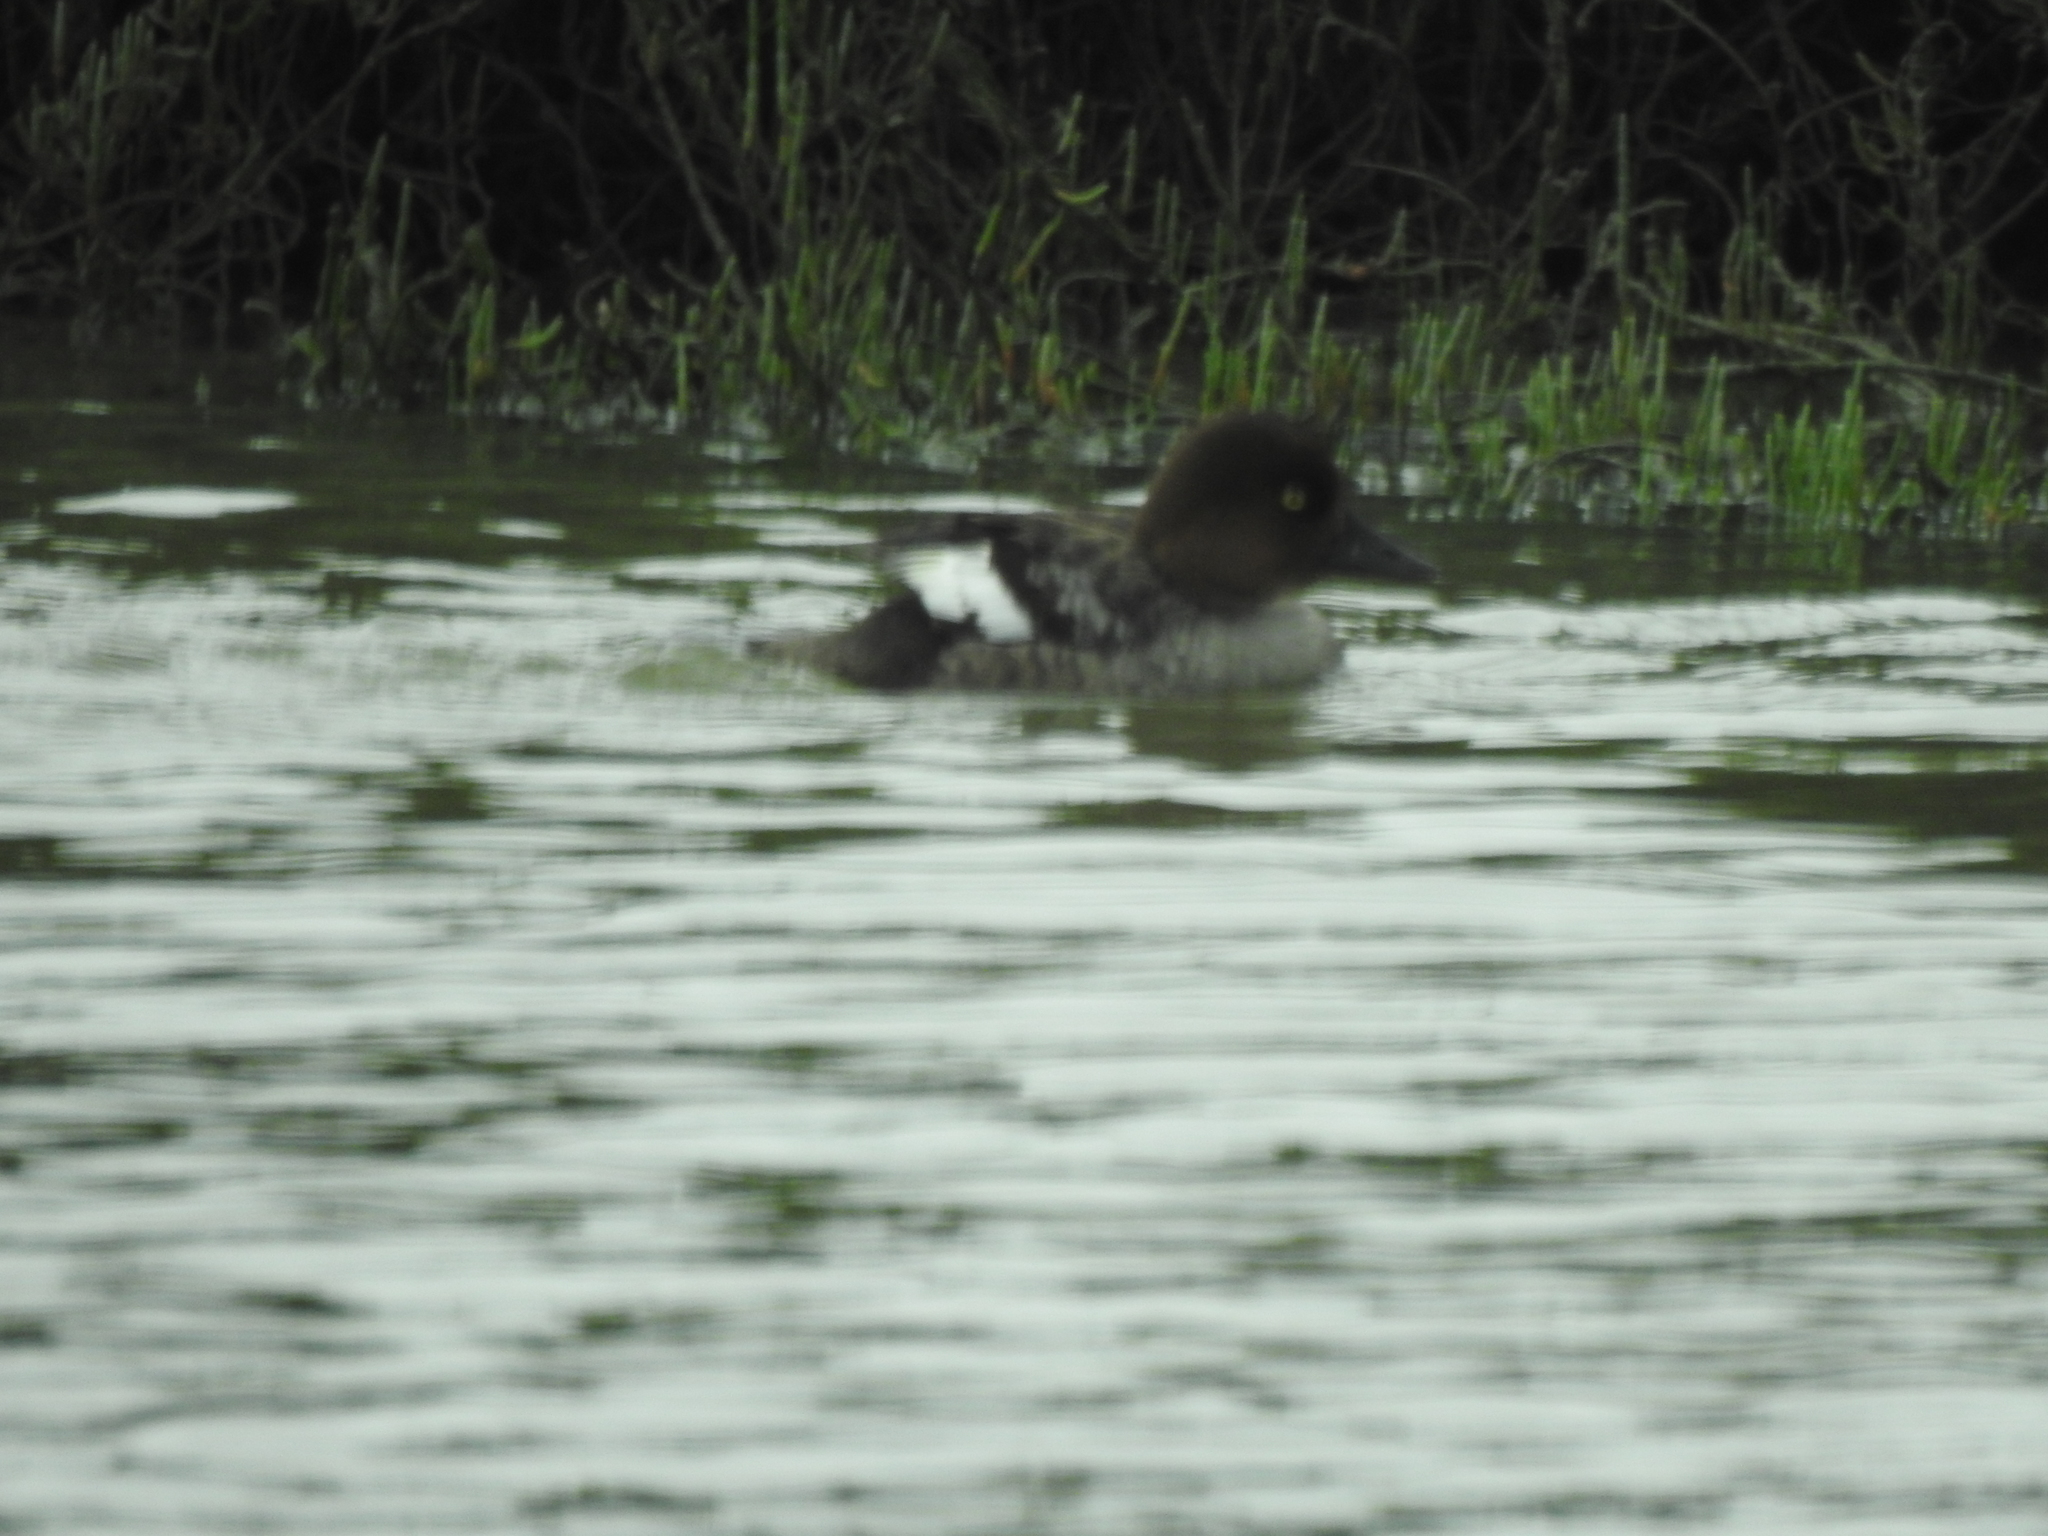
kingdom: Animalia
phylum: Chordata
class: Aves
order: Anseriformes
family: Anatidae
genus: Bucephala
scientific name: Bucephala clangula
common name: Common goldeneye
